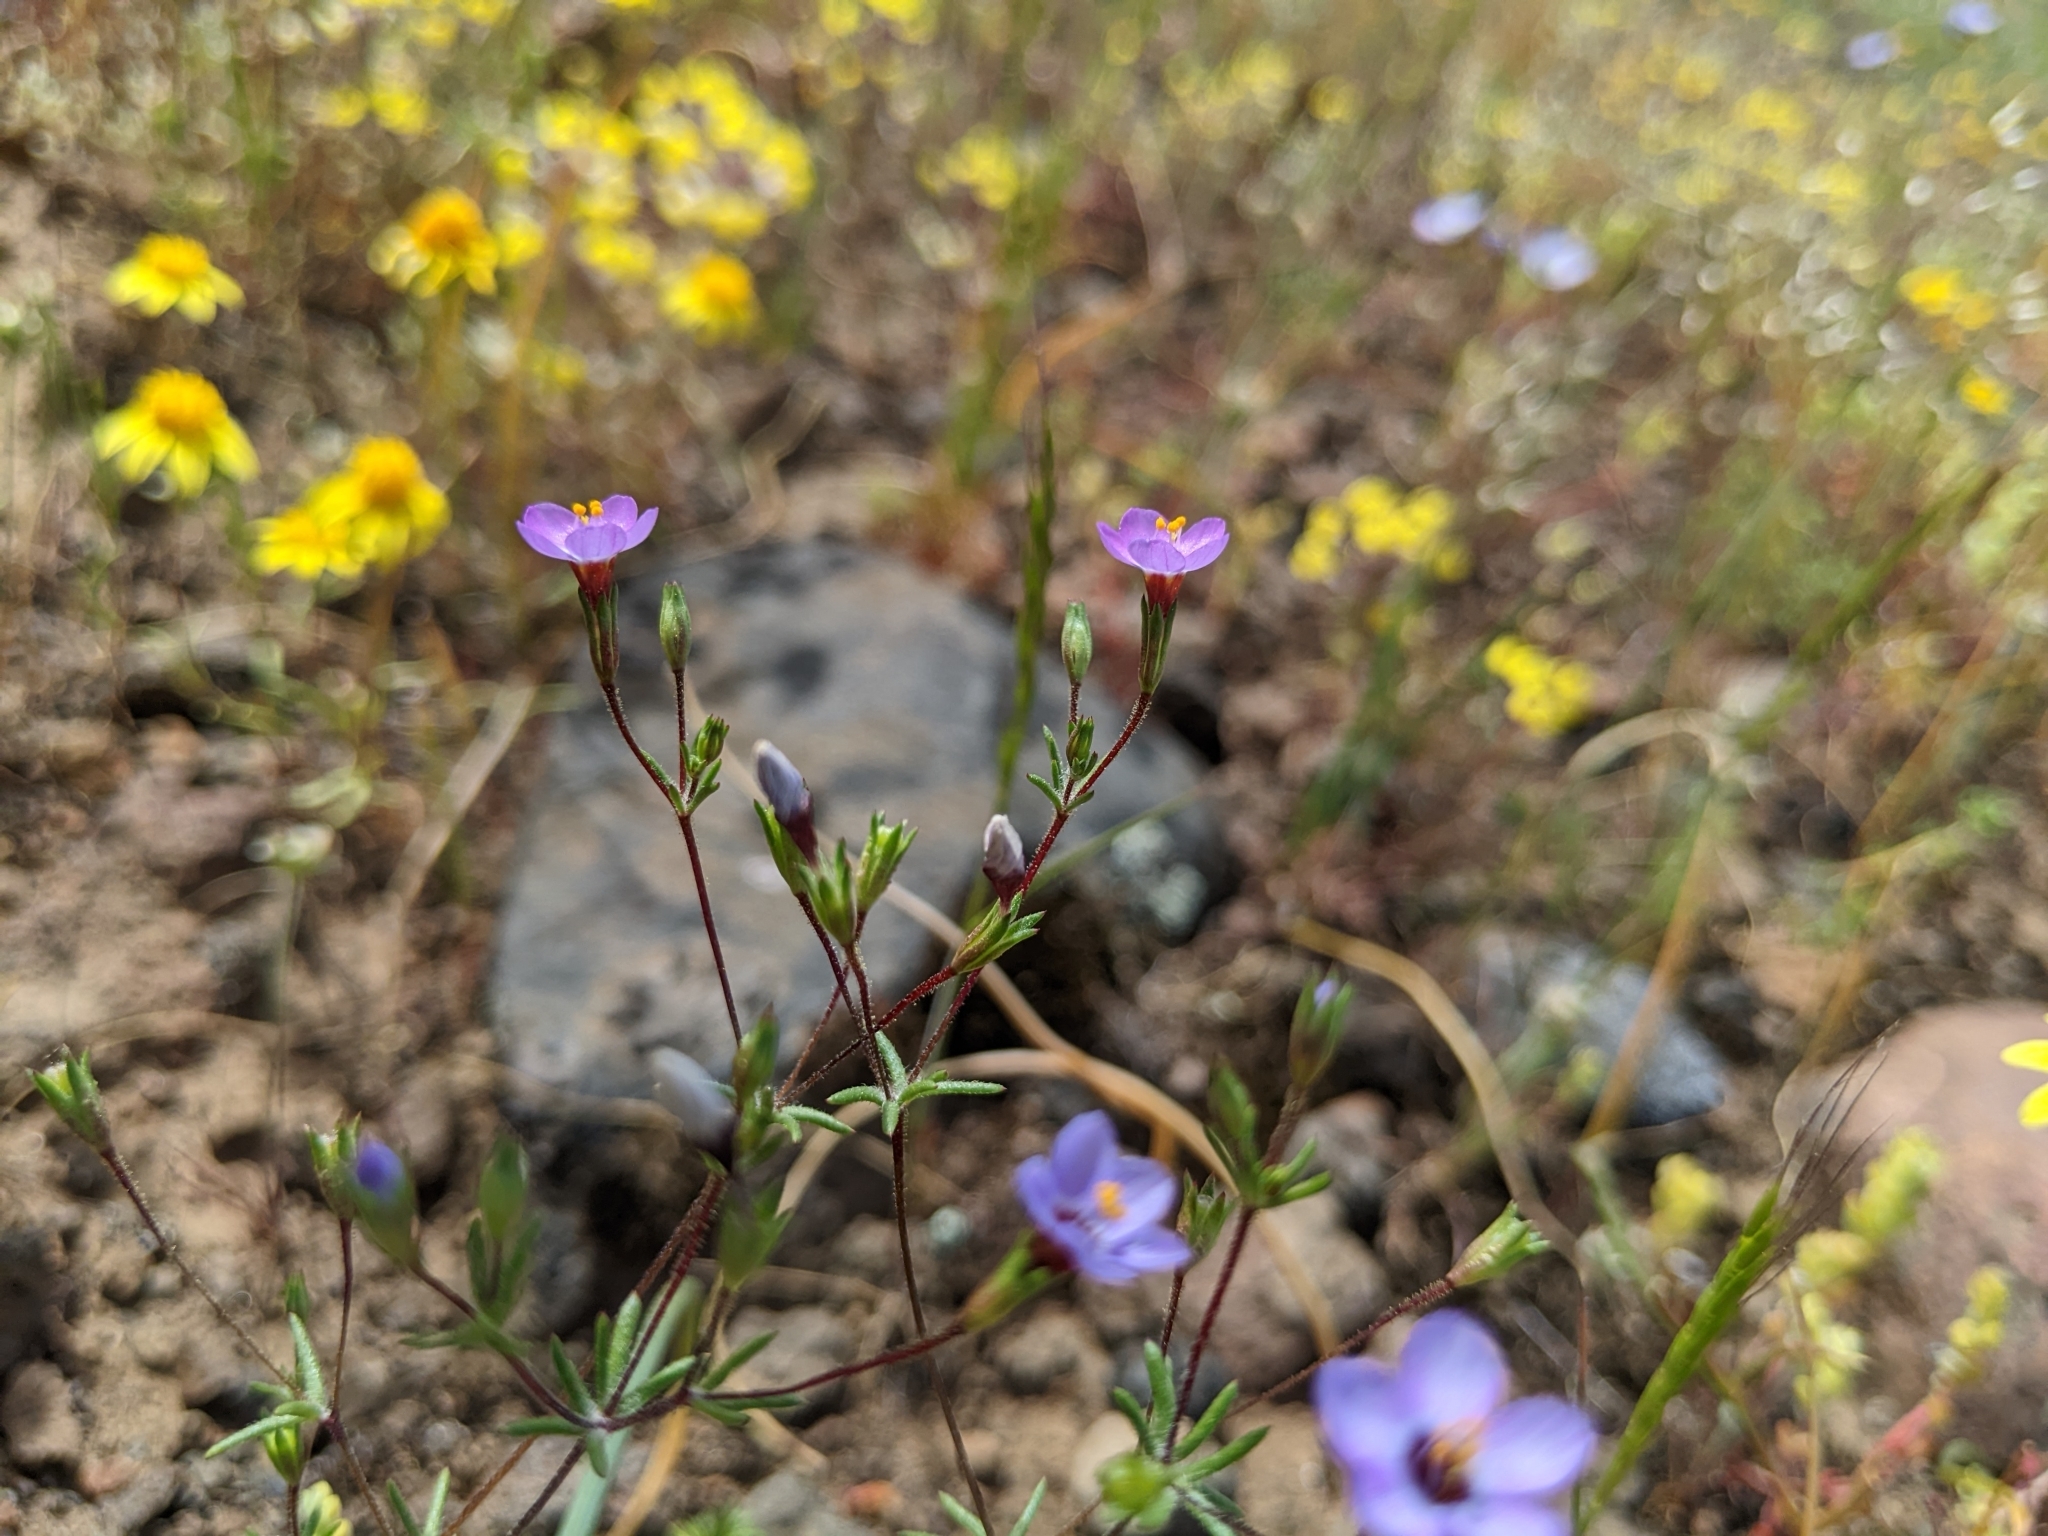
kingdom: Plantae
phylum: Tracheophyta
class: Magnoliopsida
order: Ericales
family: Polemoniaceae
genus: Leptosiphon
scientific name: Leptosiphon bolanderi
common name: Bolander's linanthus
